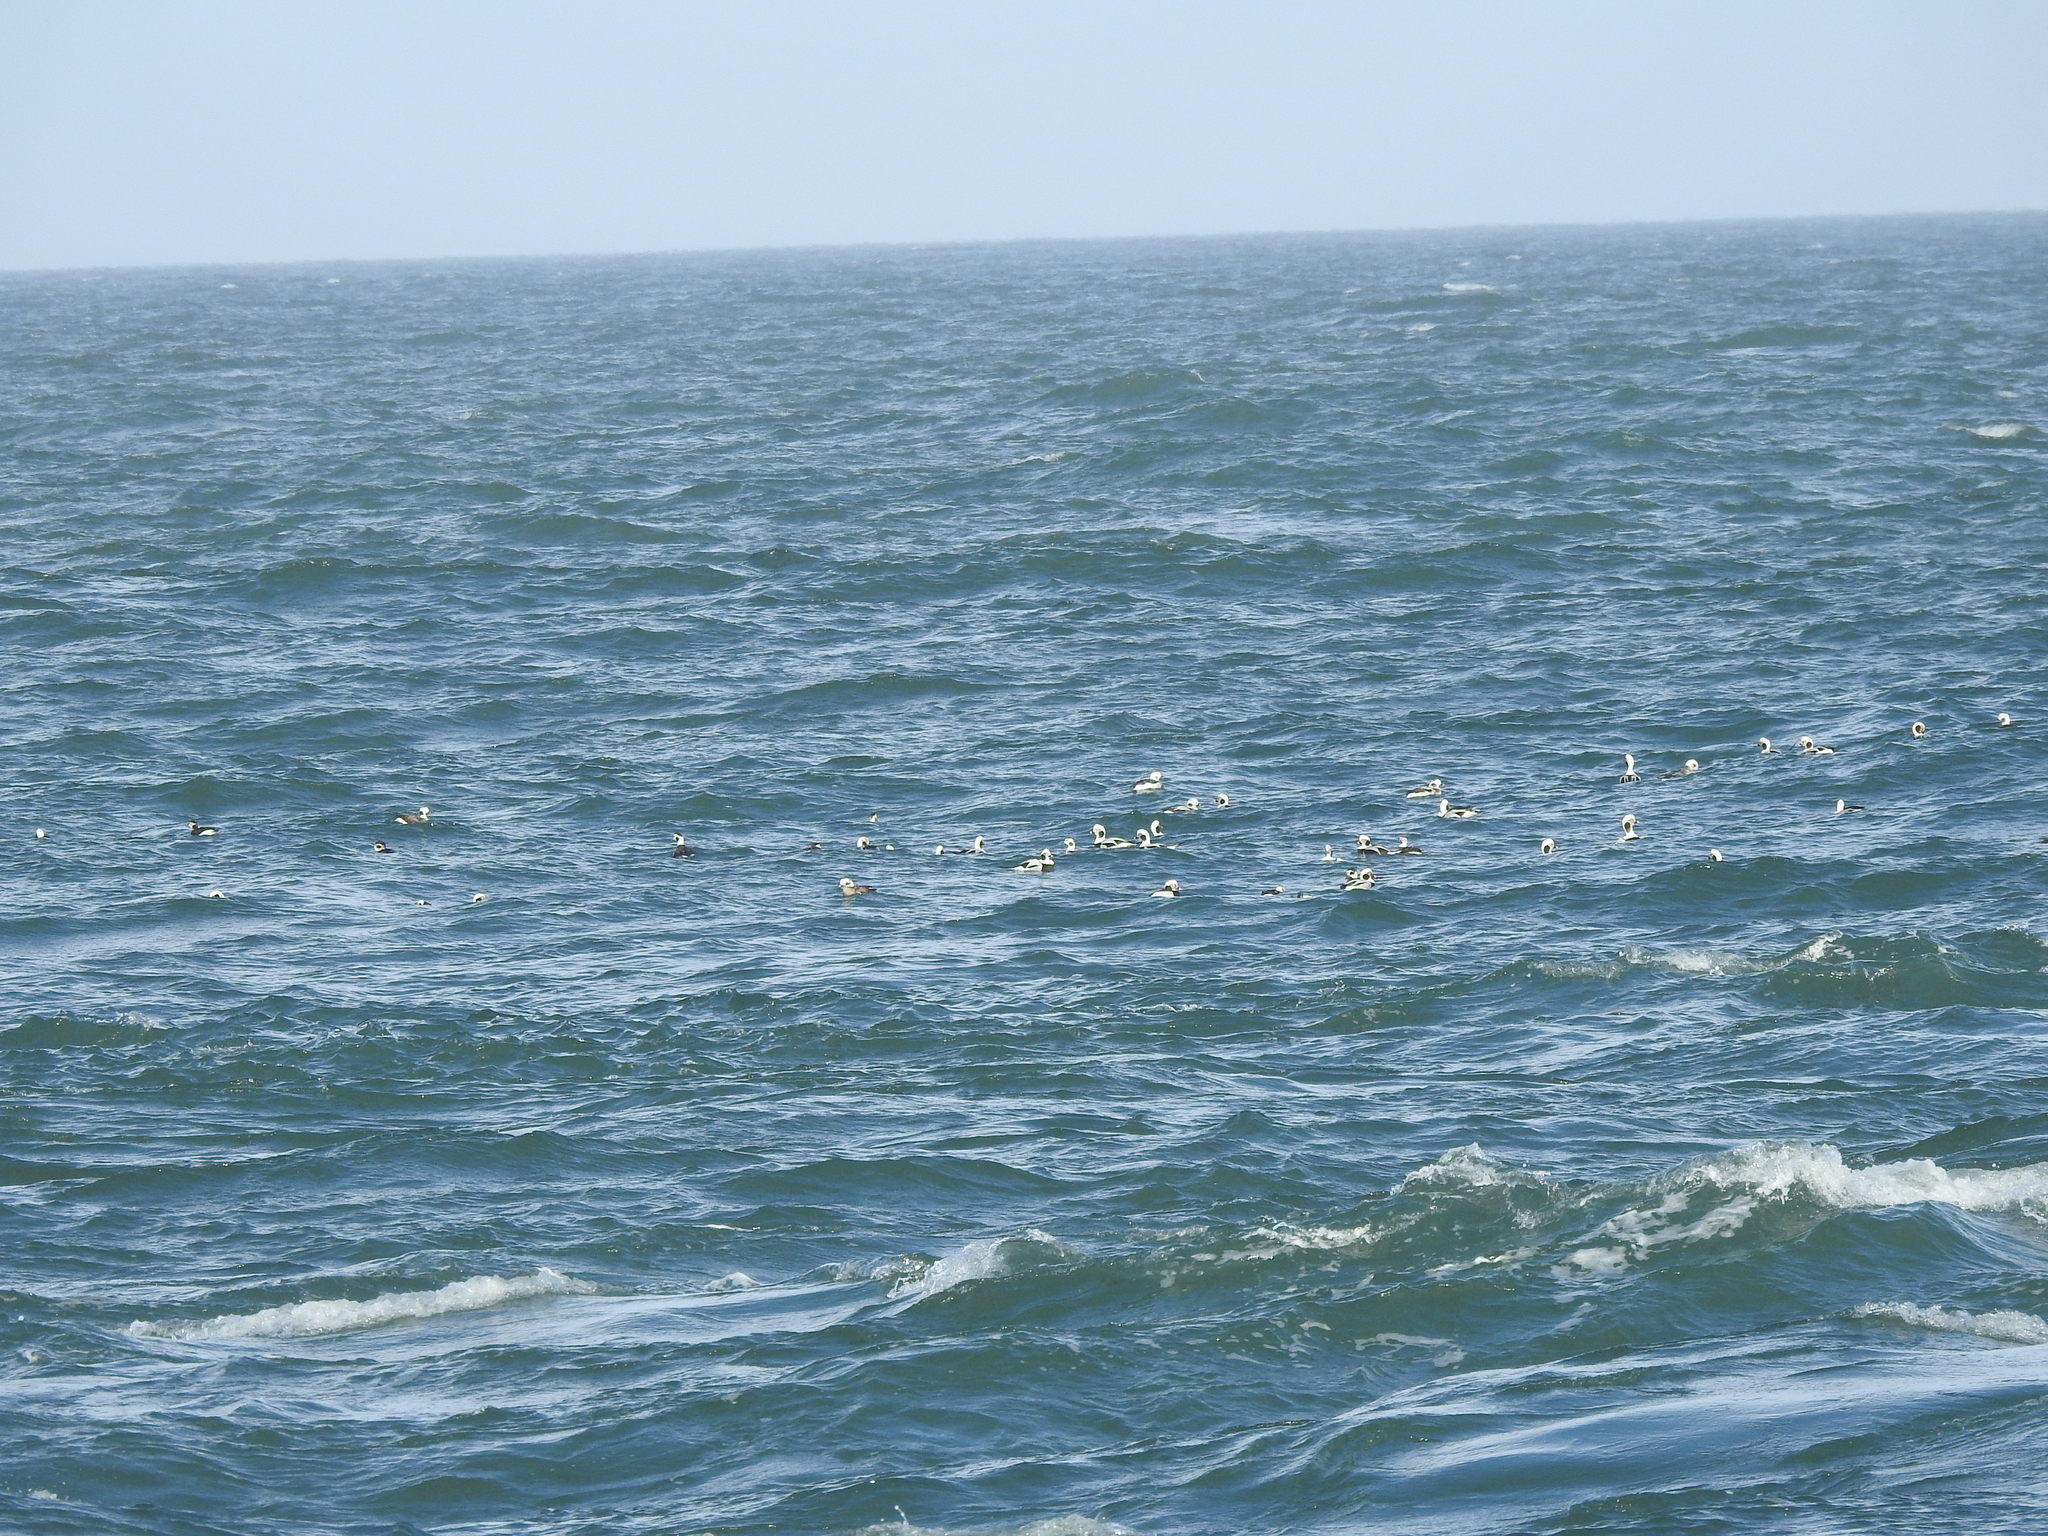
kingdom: Animalia
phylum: Chordata
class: Aves
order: Anseriformes
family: Anatidae
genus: Clangula
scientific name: Clangula hyemalis
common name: Long-tailed duck
